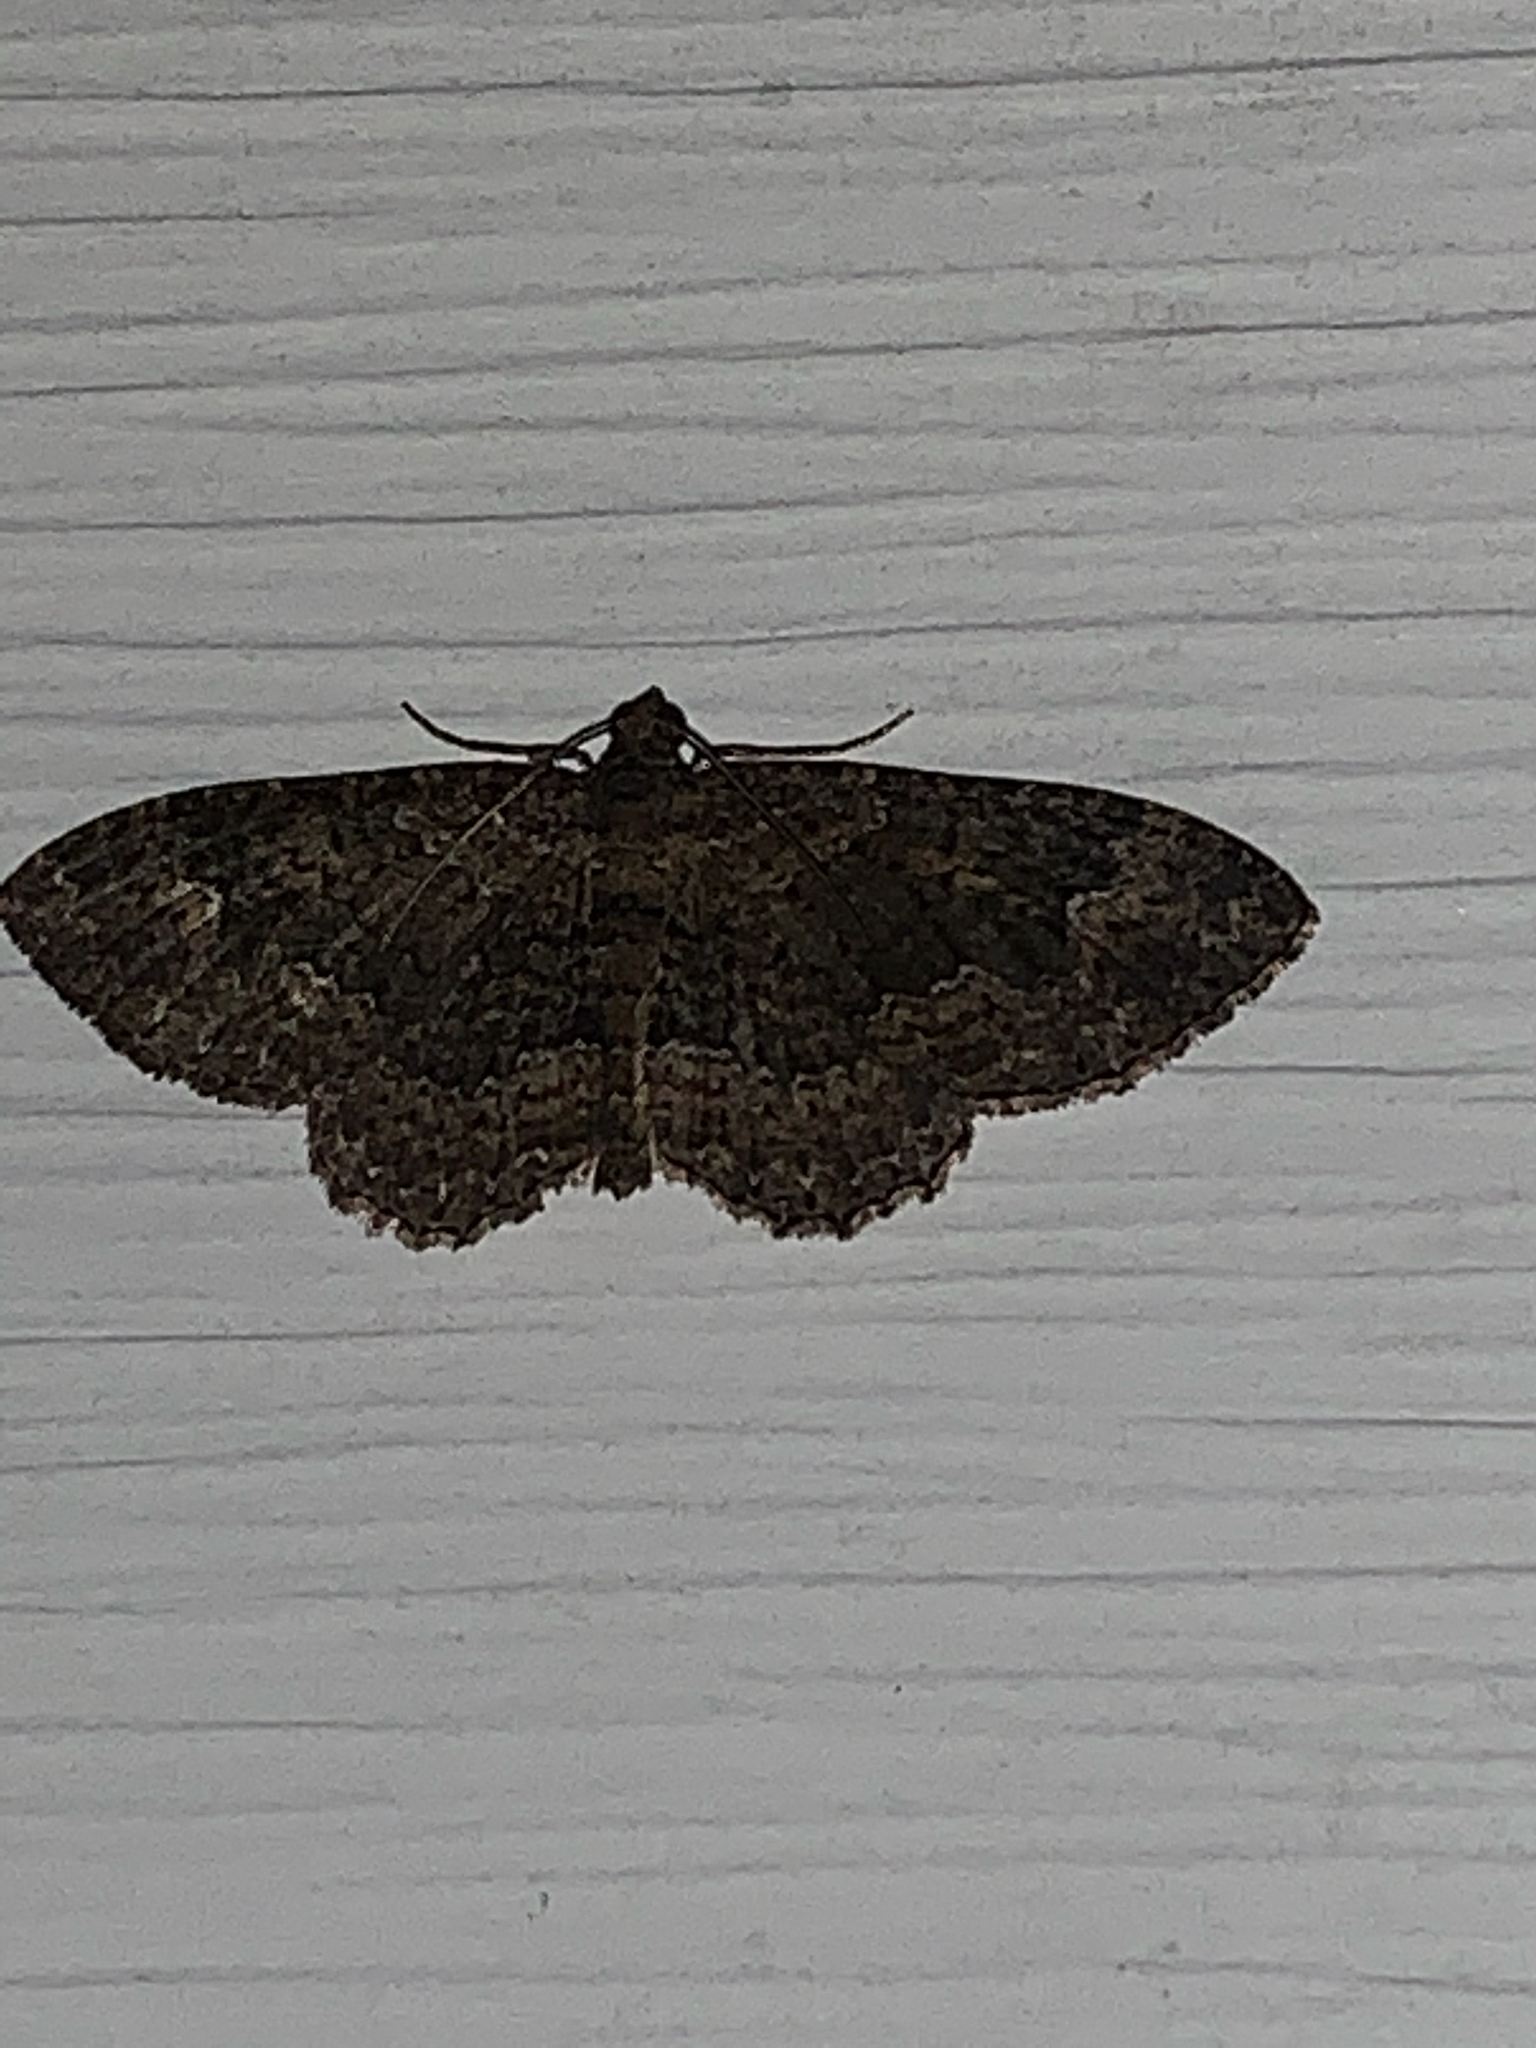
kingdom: Animalia
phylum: Arthropoda
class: Insecta
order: Lepidoptera
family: Geometridae
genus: Disclisioprocta
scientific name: Disclisioprocta stellata
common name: Somber carpet
